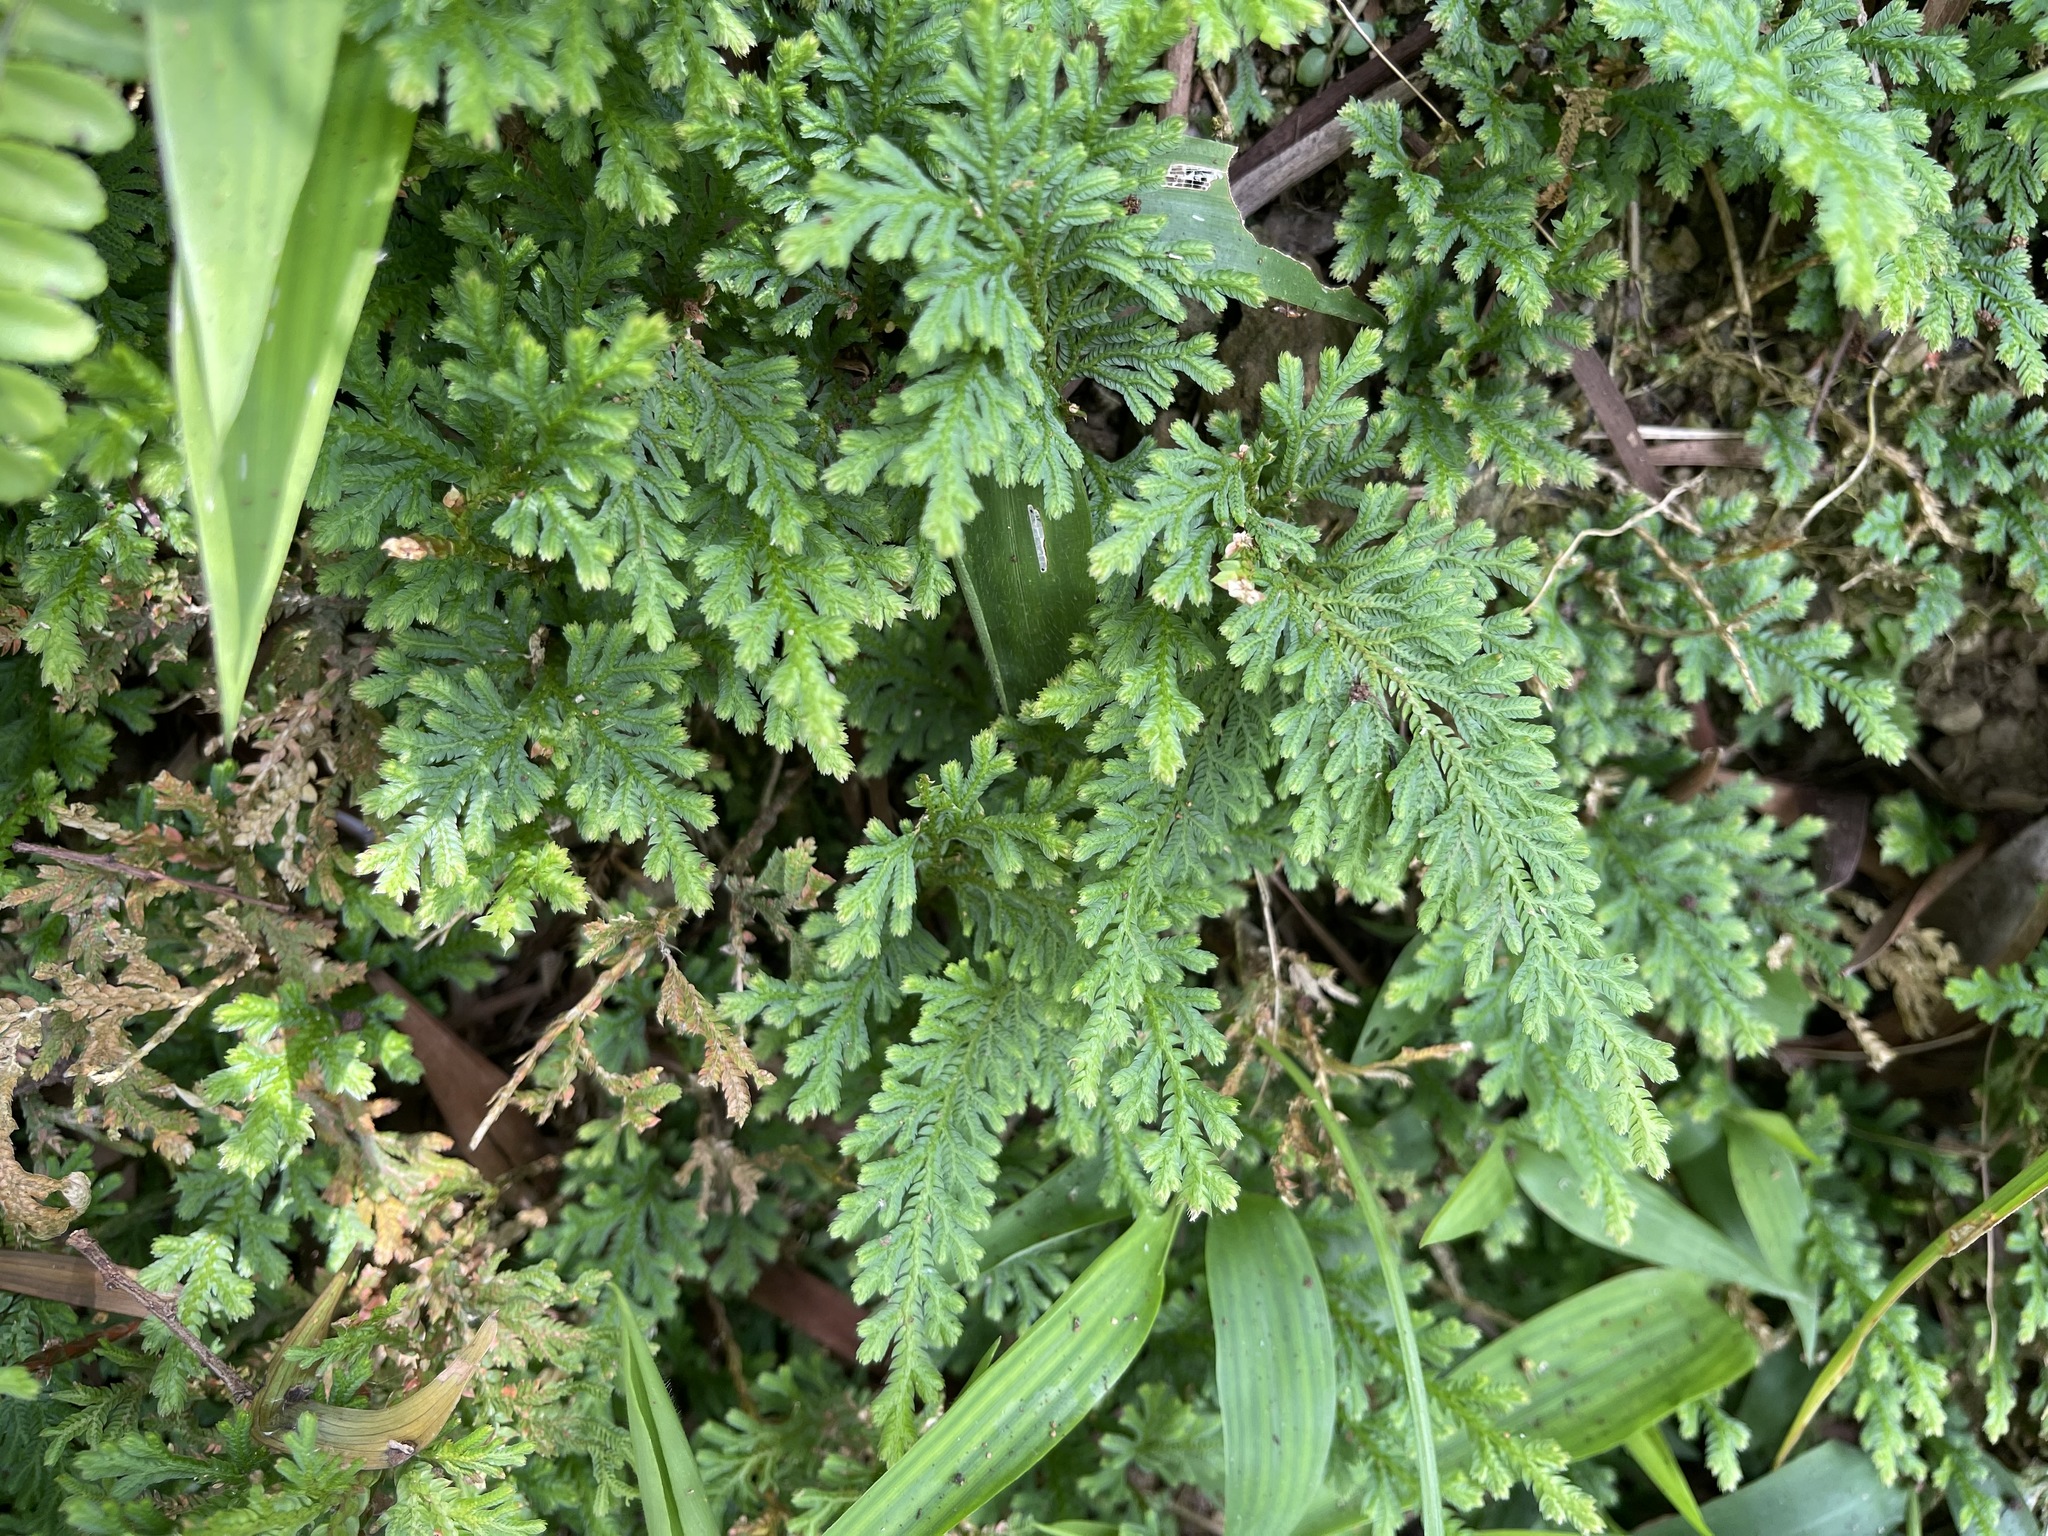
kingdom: Plantae
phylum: Tracheophyta
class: Lycopodiopsida
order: Selaginellales
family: Selaginellaceae
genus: Selaginella
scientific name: Selaginella moellendorffii
